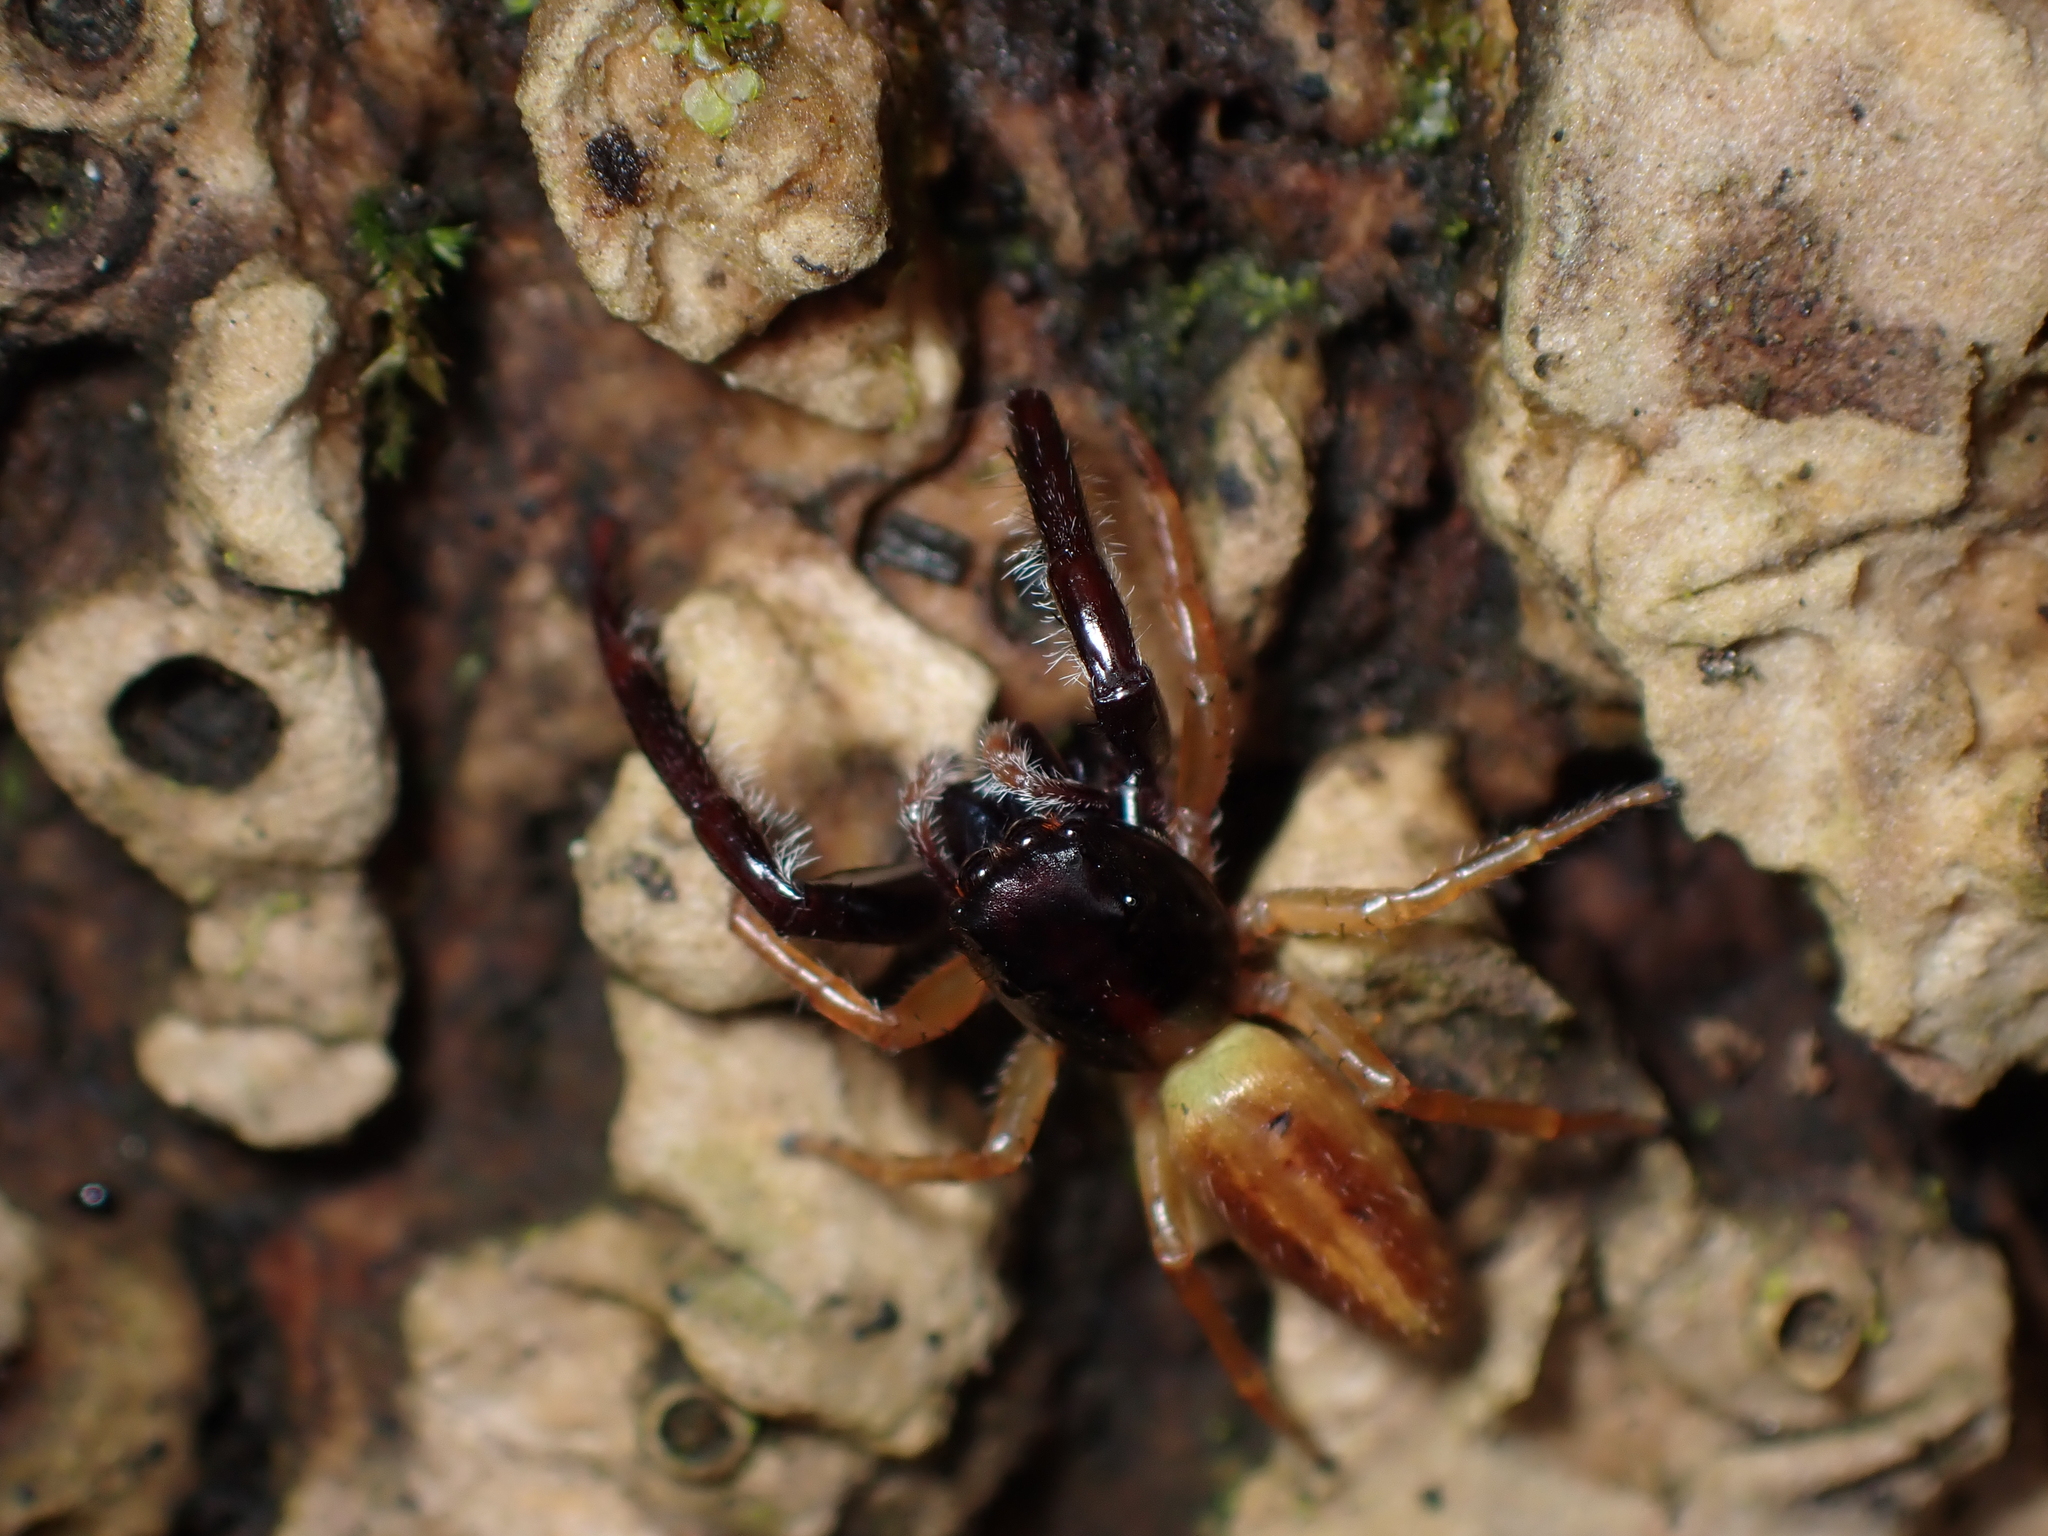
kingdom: Animalia
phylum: Arthropoda
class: Arachnida
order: Araneae
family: Salticidae
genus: Trite
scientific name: Trite planiceps
